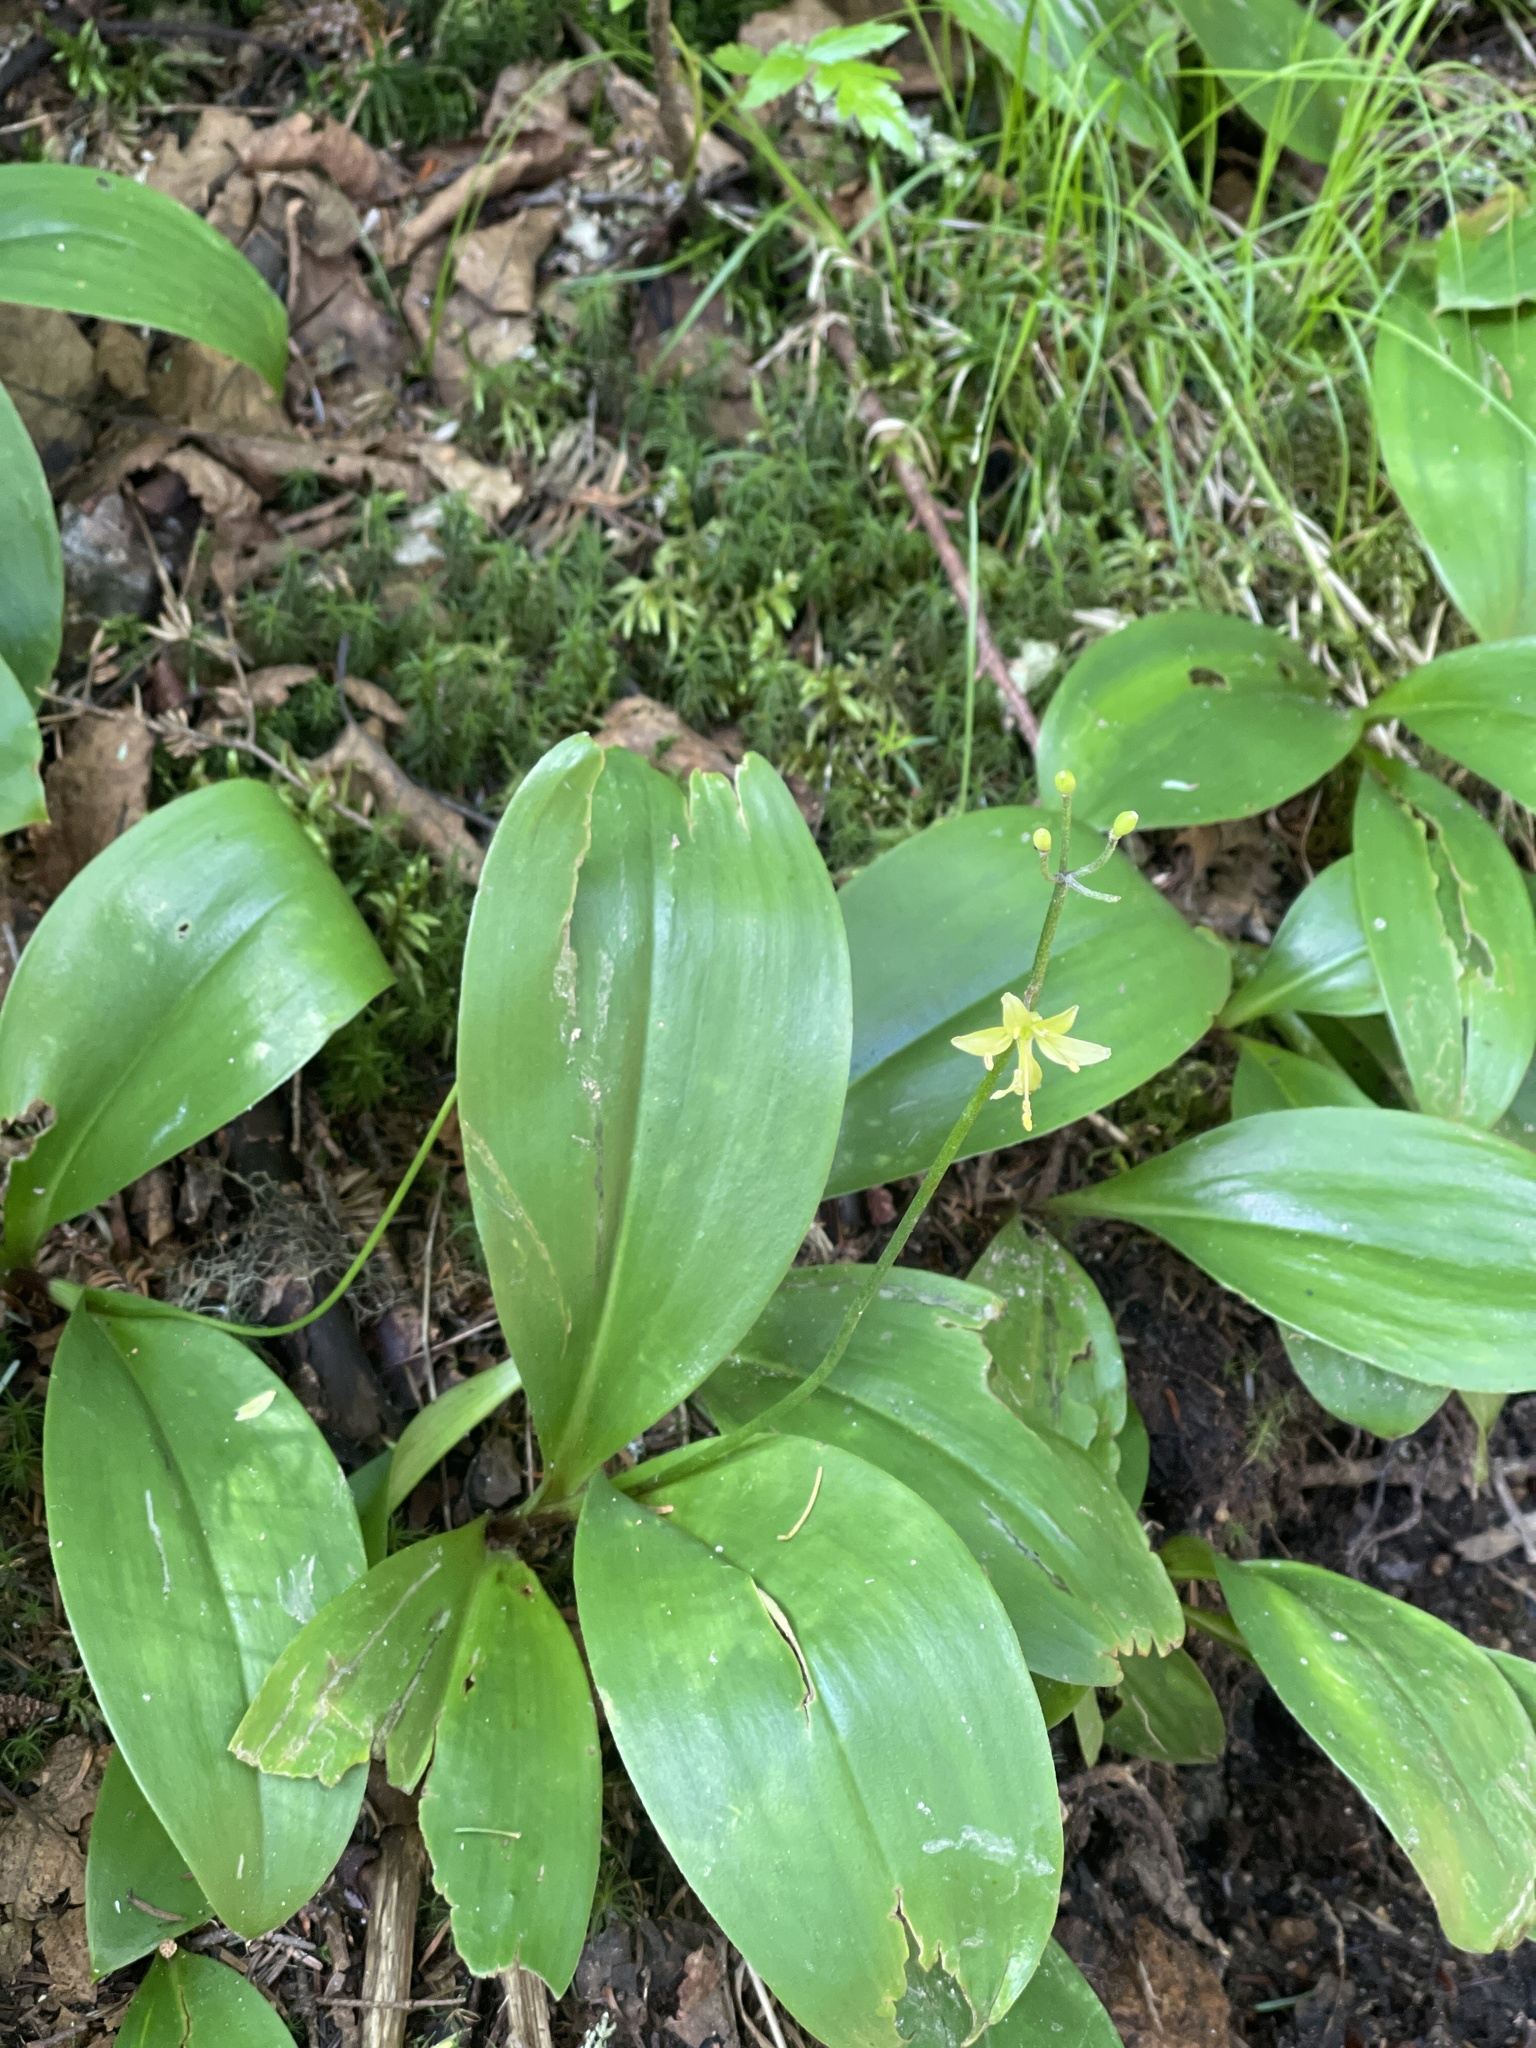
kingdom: Plantae
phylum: Tracheophyta
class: Liliopsida
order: Liliales
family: Liliaceae
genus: Clintonia
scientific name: Clintonia borealis
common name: Yellow clintonia
